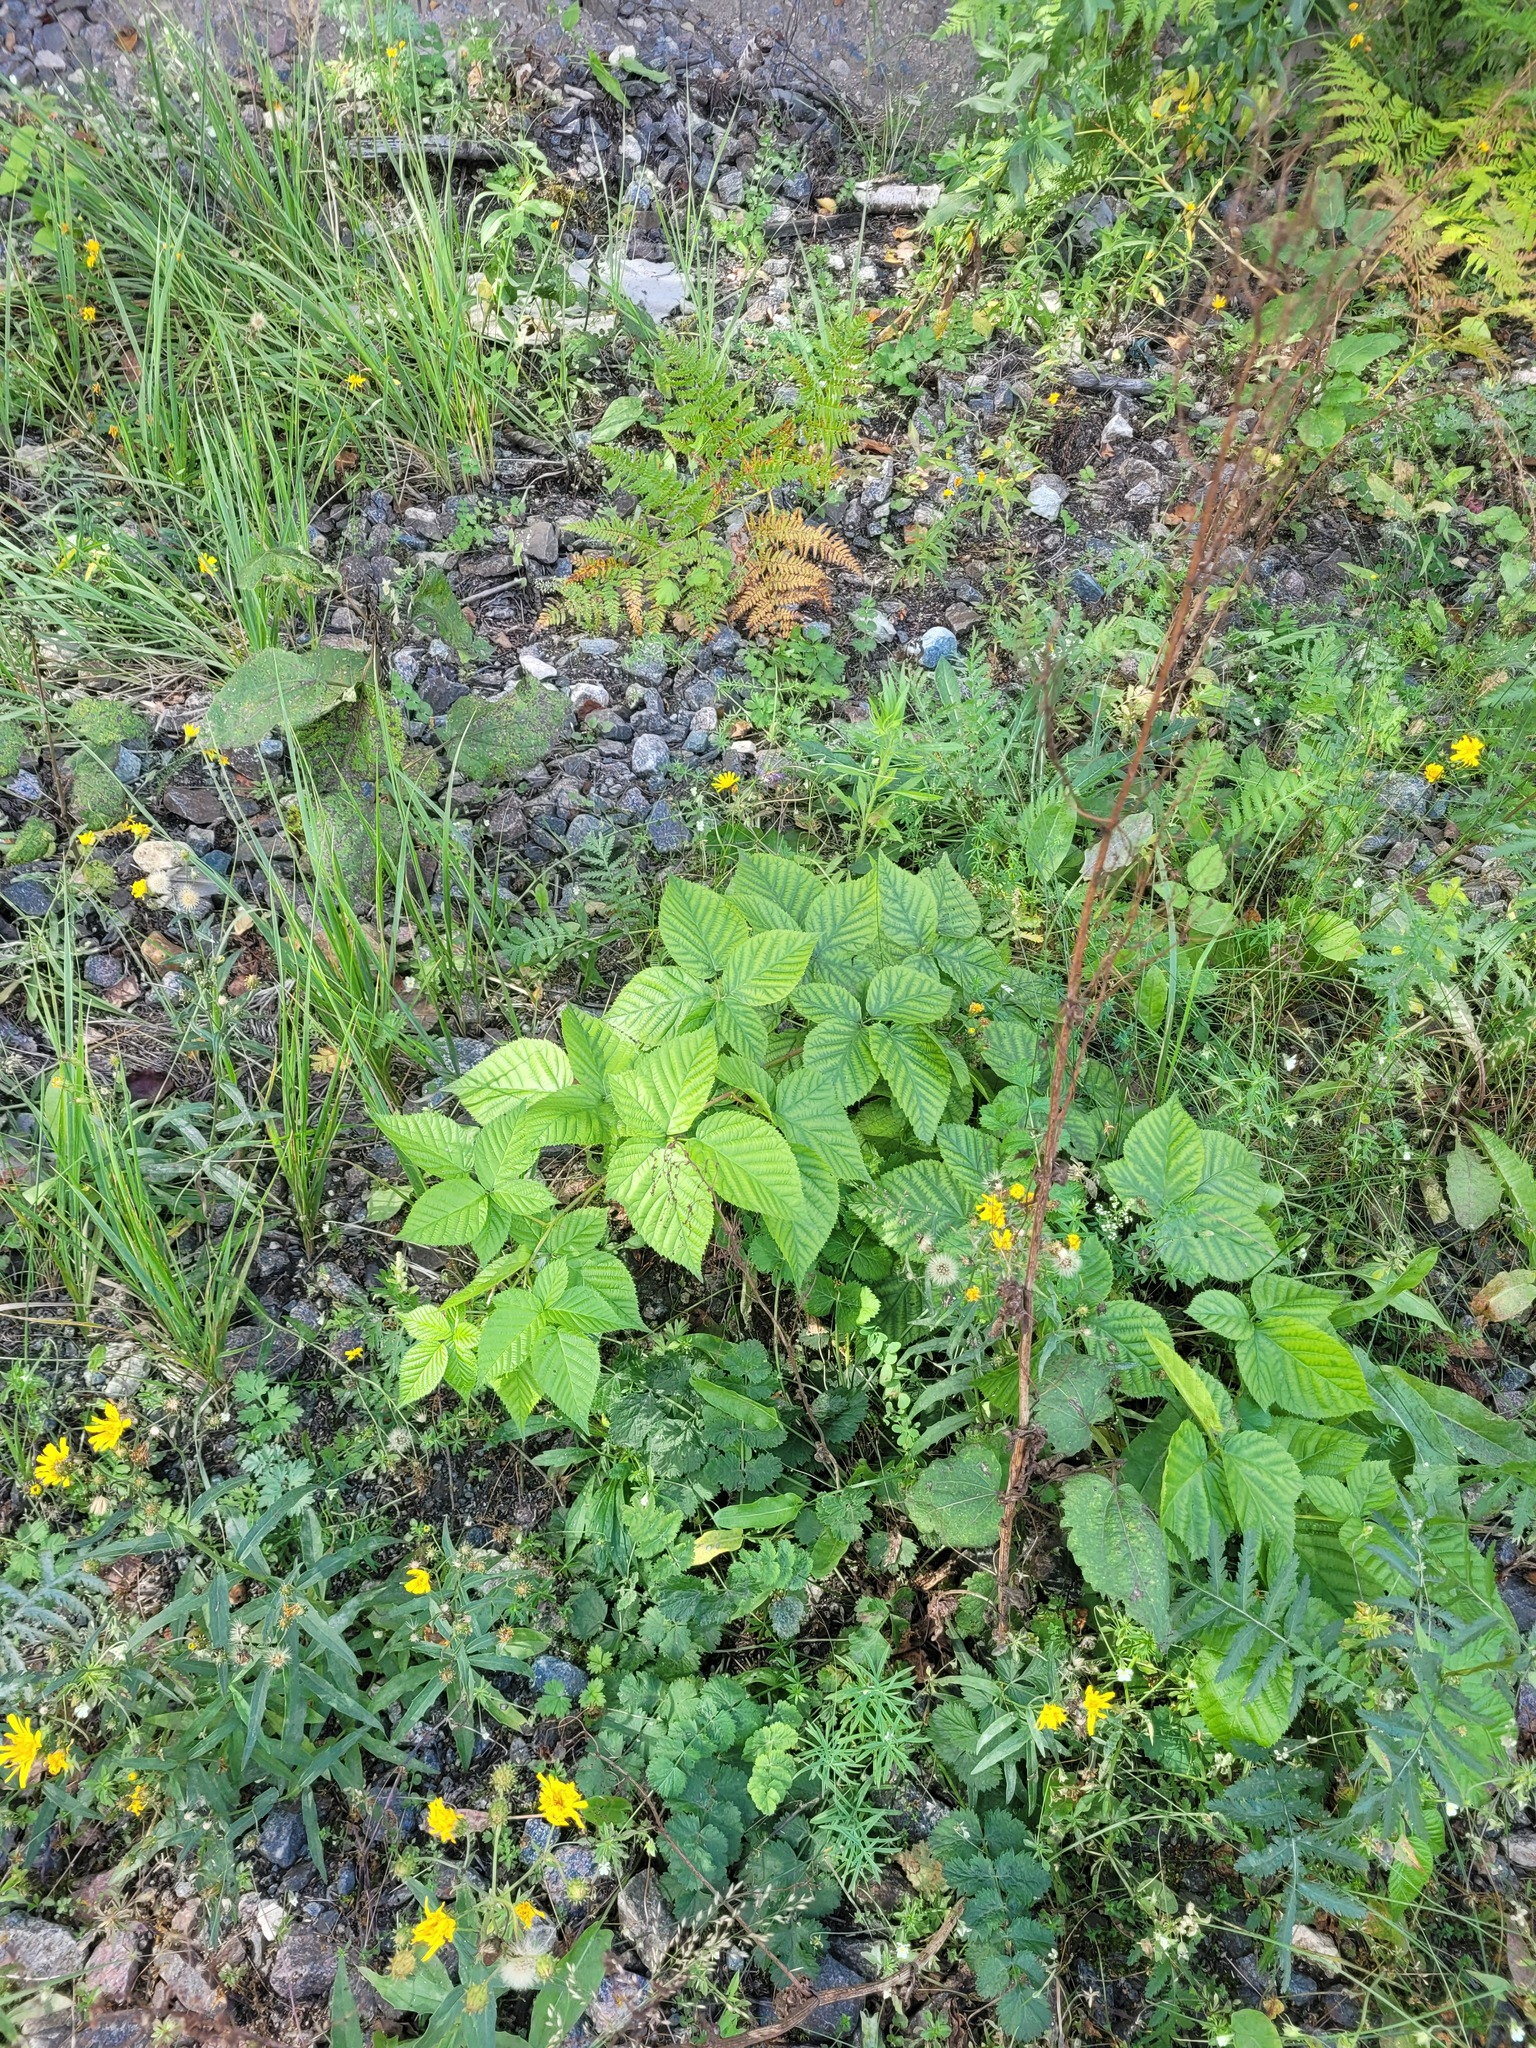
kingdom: Plantae
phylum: Tracheophyta
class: Magnoliopsida
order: Rosales
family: Rosaceae
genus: Rubus
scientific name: Rubus polonicus
